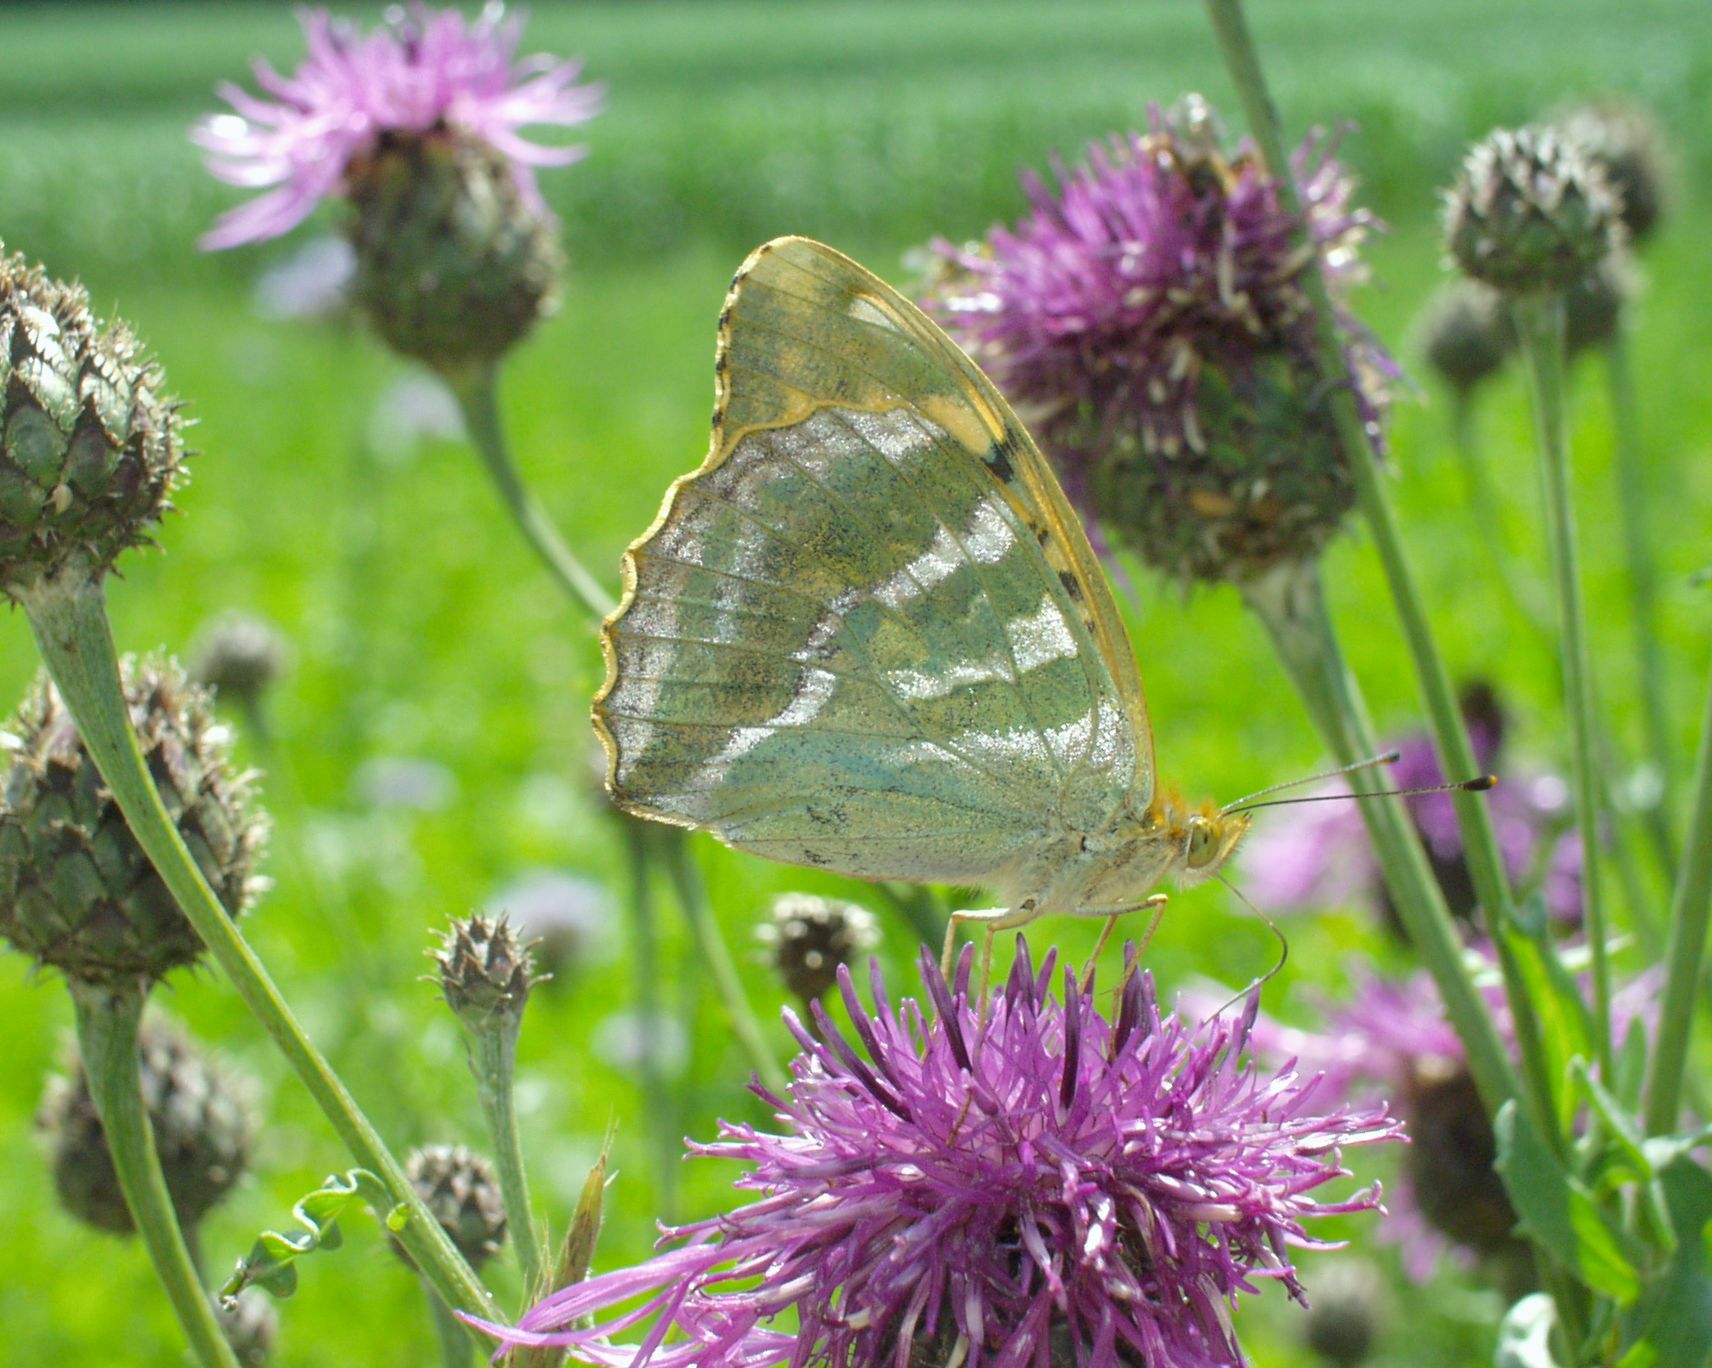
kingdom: Animalia
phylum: Arthropoda
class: Insecta
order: Lepidoptera
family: Nymphalidae
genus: Argynnis
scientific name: Argynnis paphia
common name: Silver-washed fritillary
